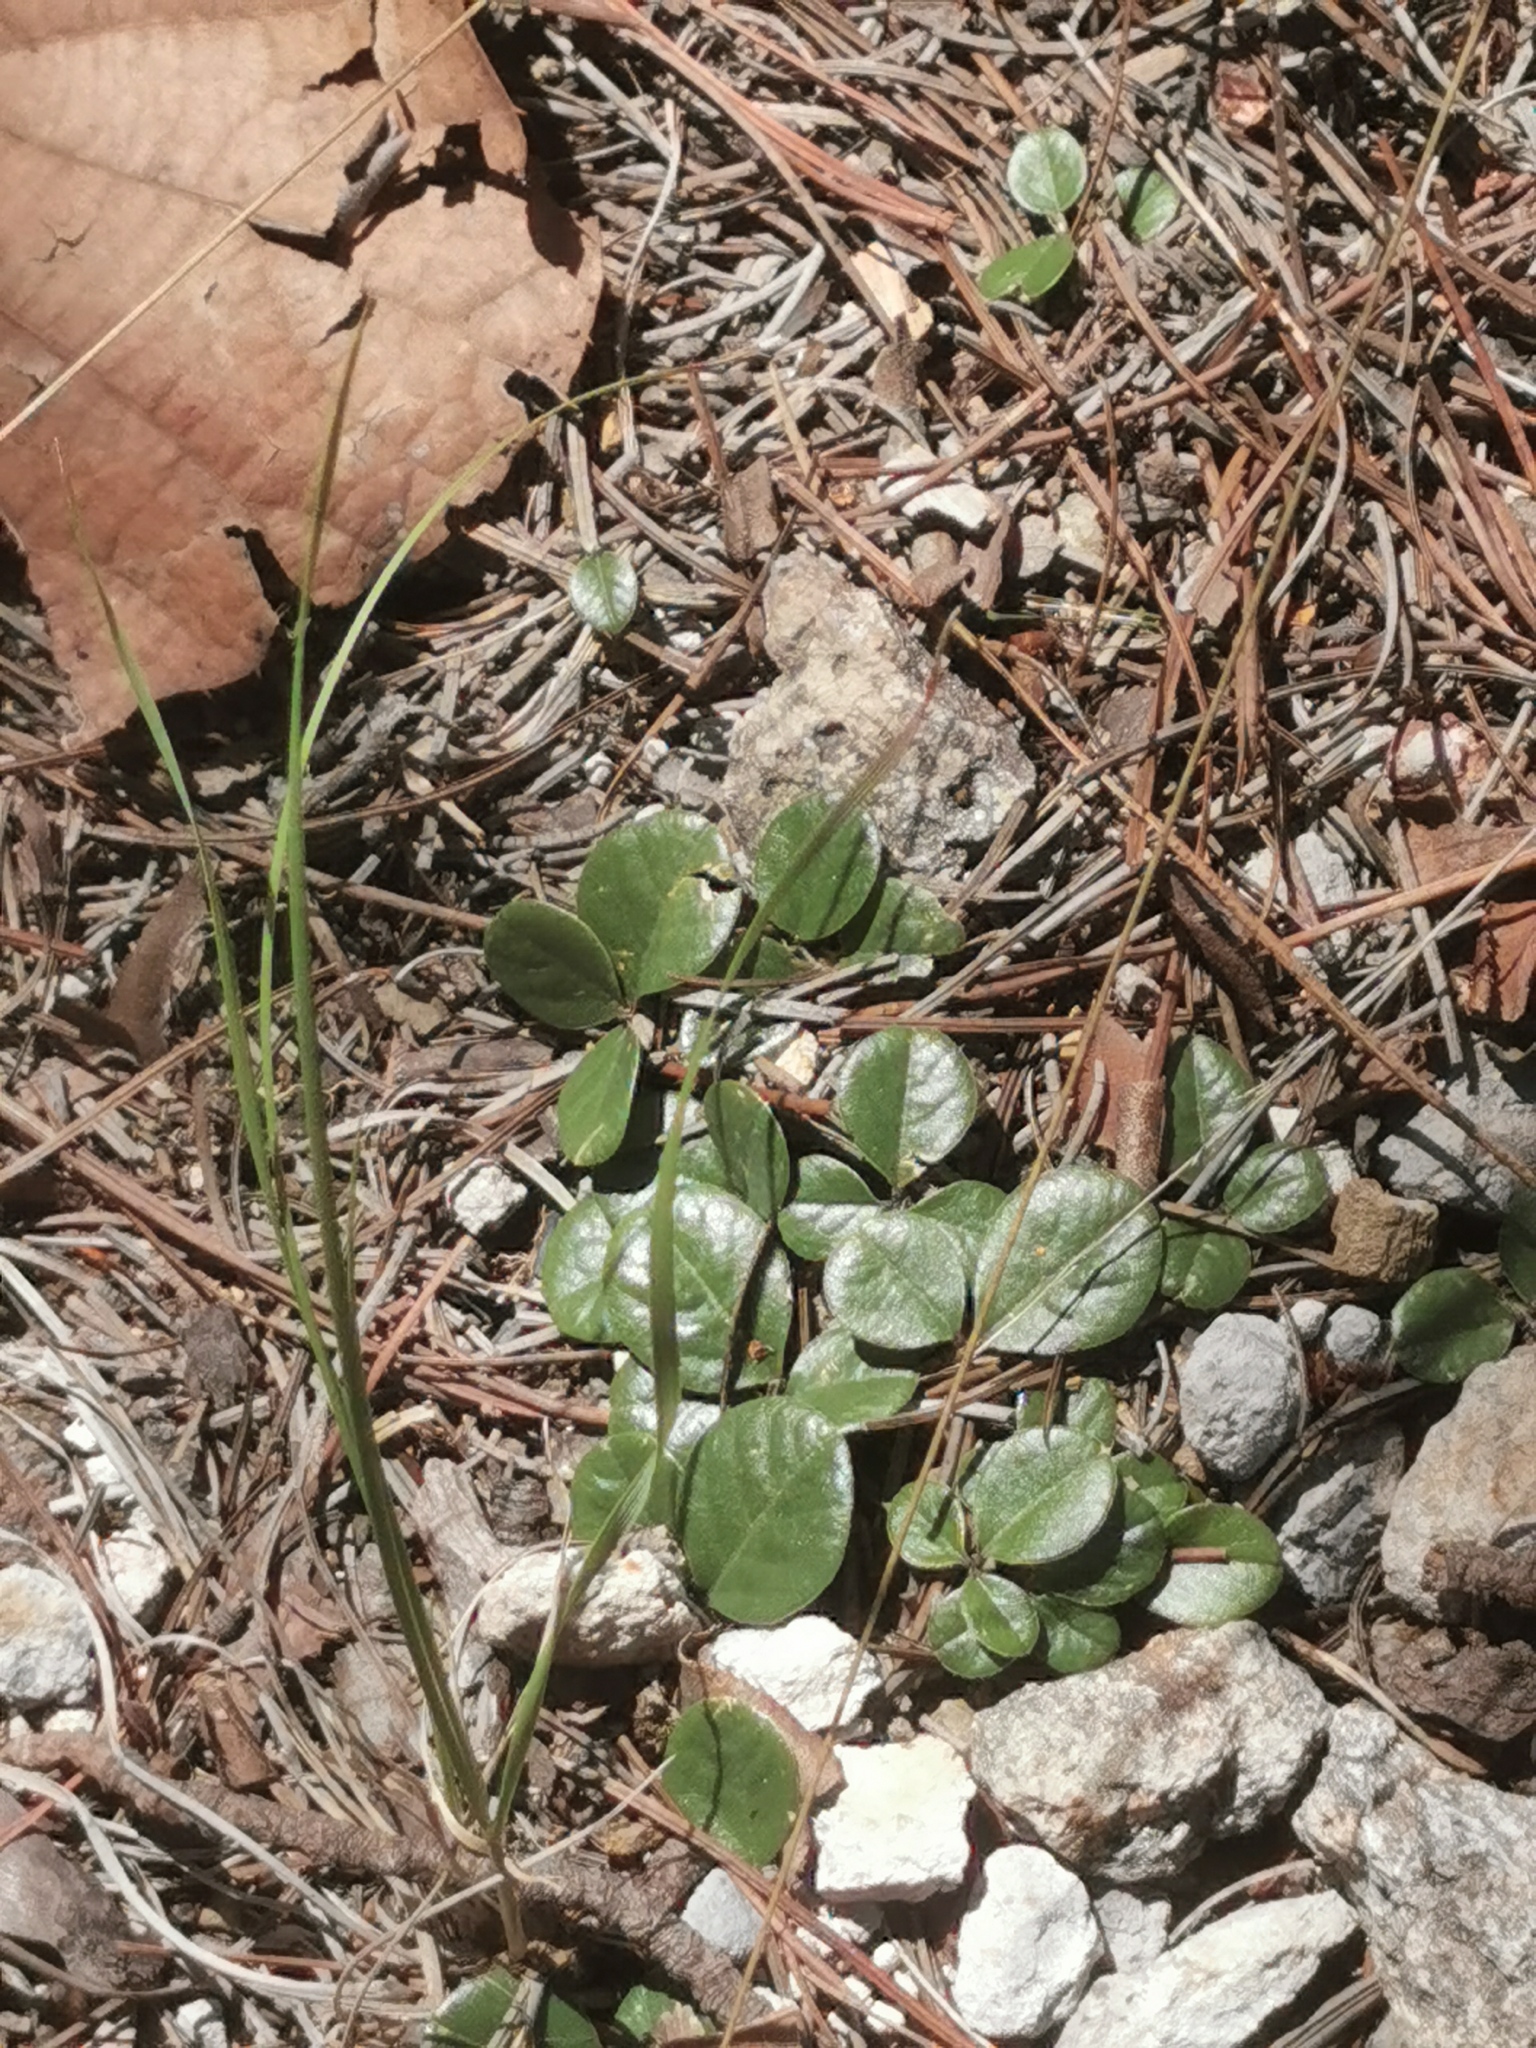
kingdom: Plantae
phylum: Tracheophyta
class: Magnoliopsida
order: Fabales
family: Fabaceae
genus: Cologania
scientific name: Cologania obovata
